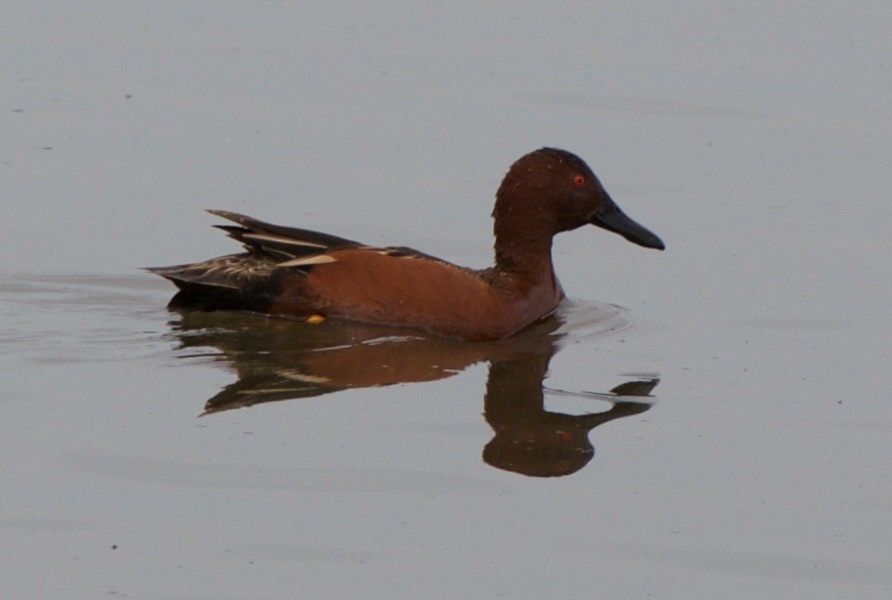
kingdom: Animalia
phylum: Chordata
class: Aves
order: Anseriformes
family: Anatidae
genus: Spatula
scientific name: Spatula cyanoptera
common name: Cinnamon teal
